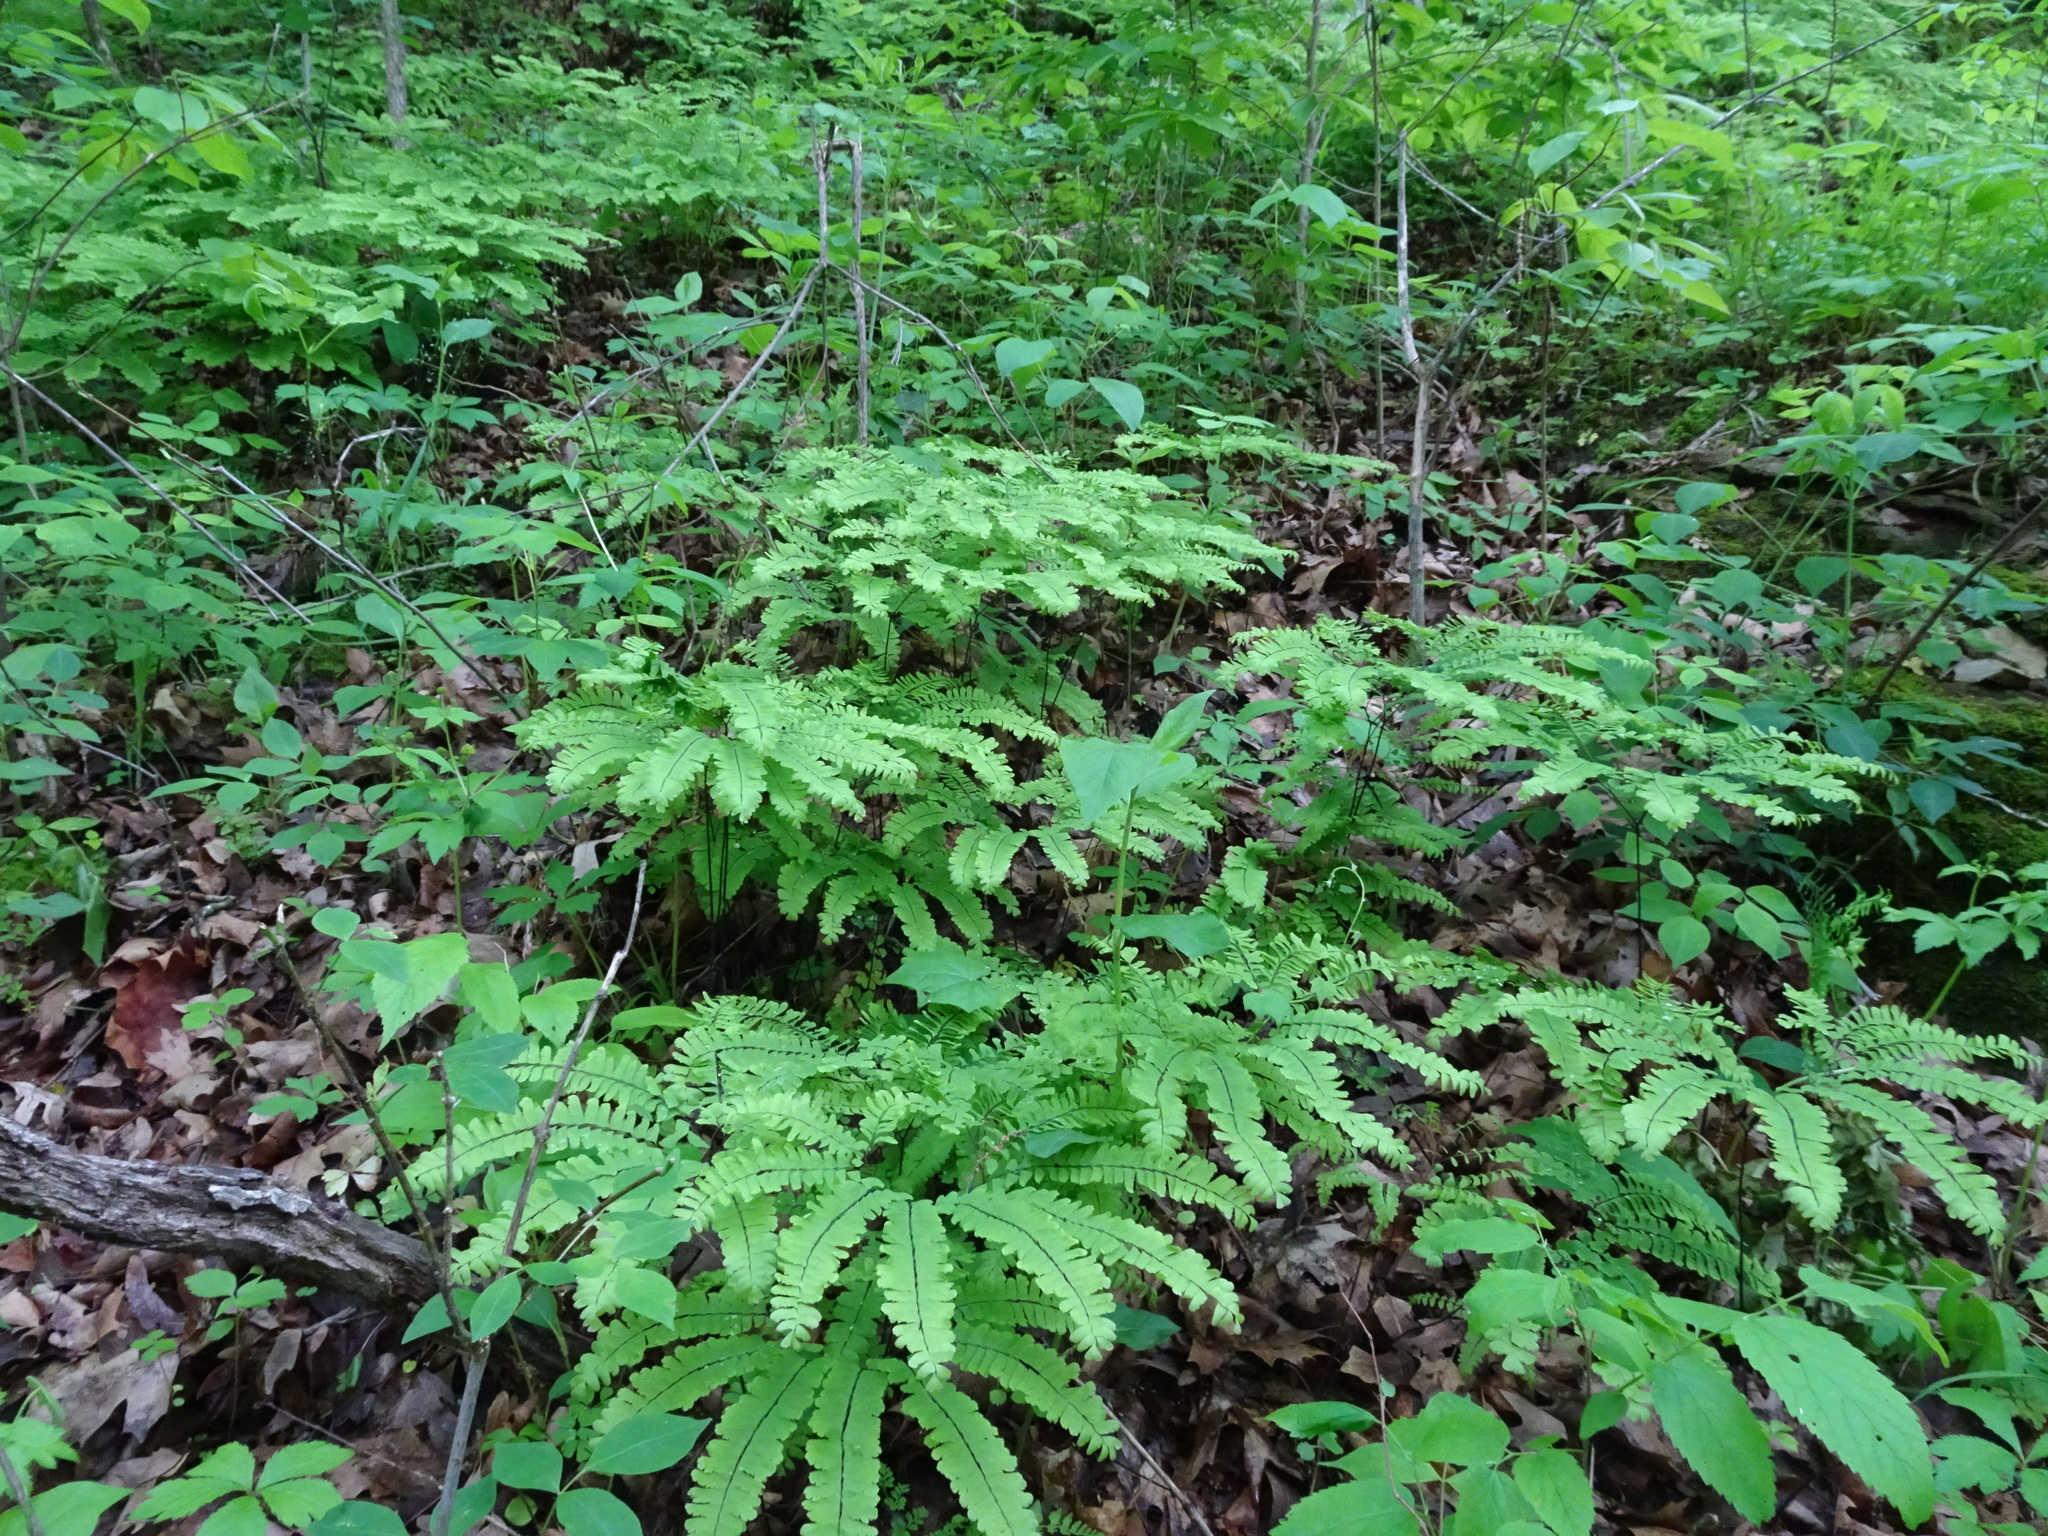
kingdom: Plantae
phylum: Tracheophyta
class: Polypodiopsida
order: Polypodiales
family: Pteridaceae
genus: Adiantum
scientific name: Adiantum pedatum
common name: Five-finger fern
